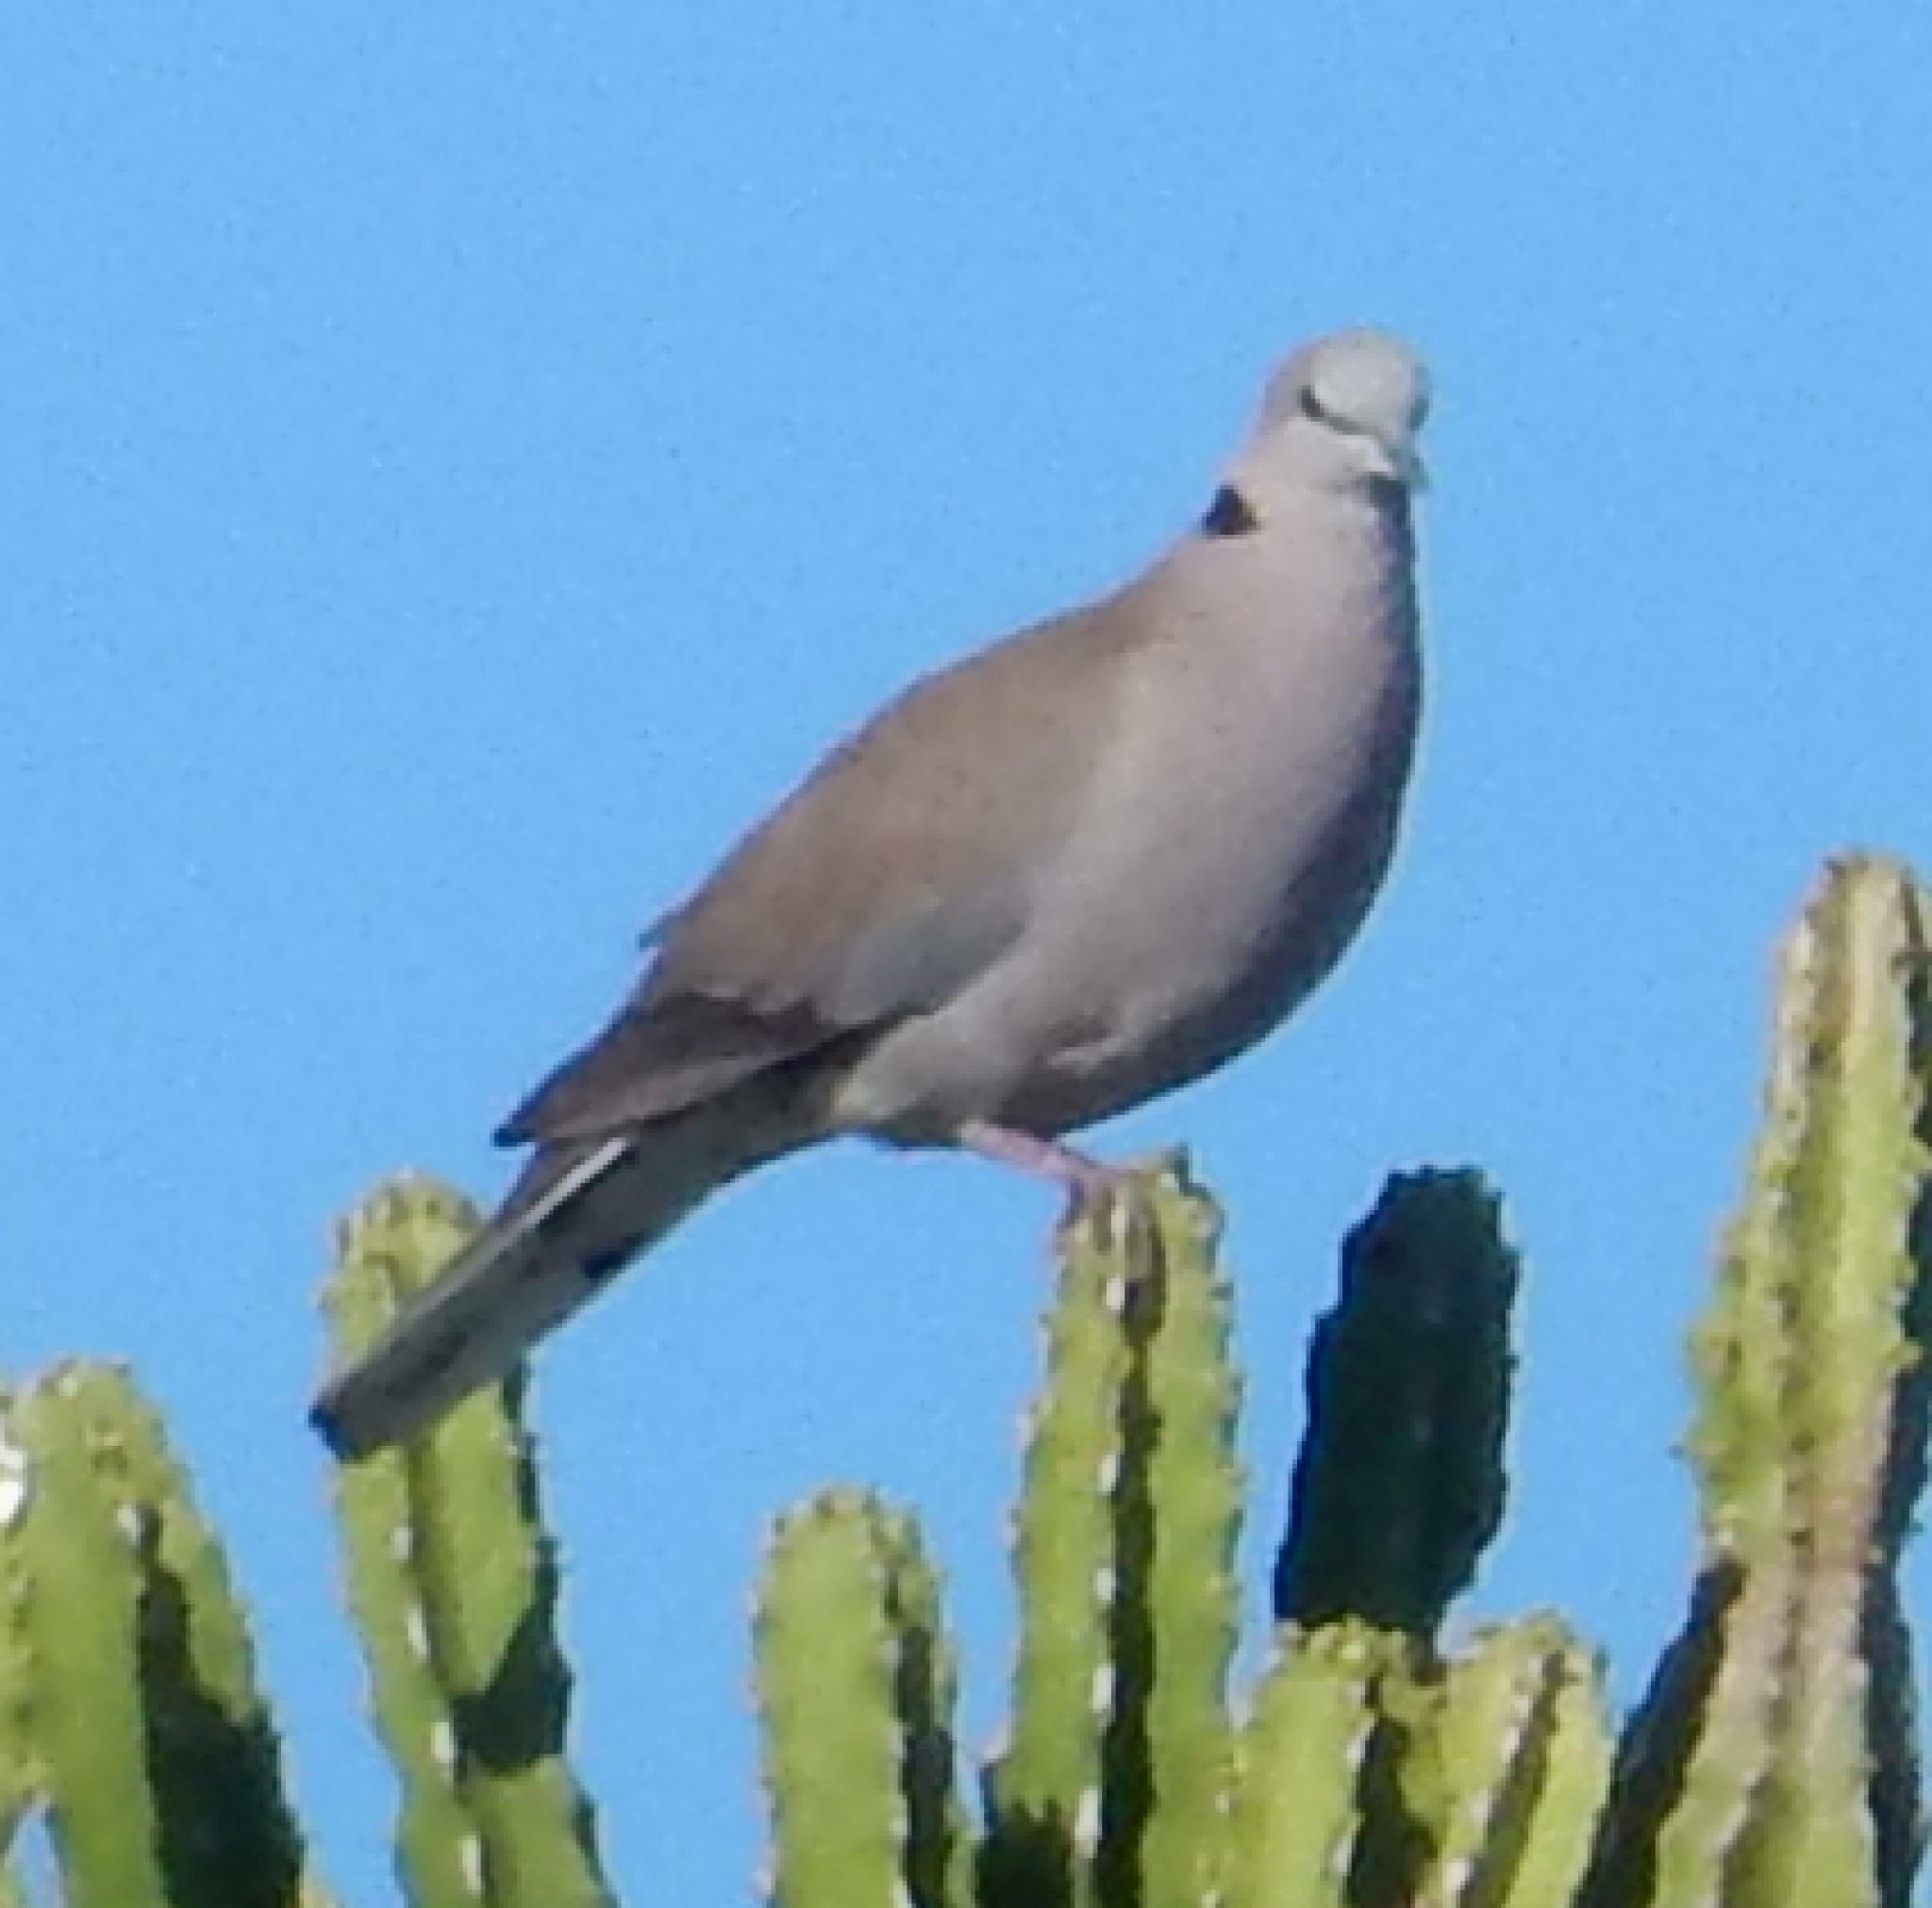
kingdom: Animalia
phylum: Chordata
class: Aves
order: Columbiformes
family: Columbidae
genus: Streptopelia
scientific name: Streptopelia capicola
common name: Ring-necked dove
